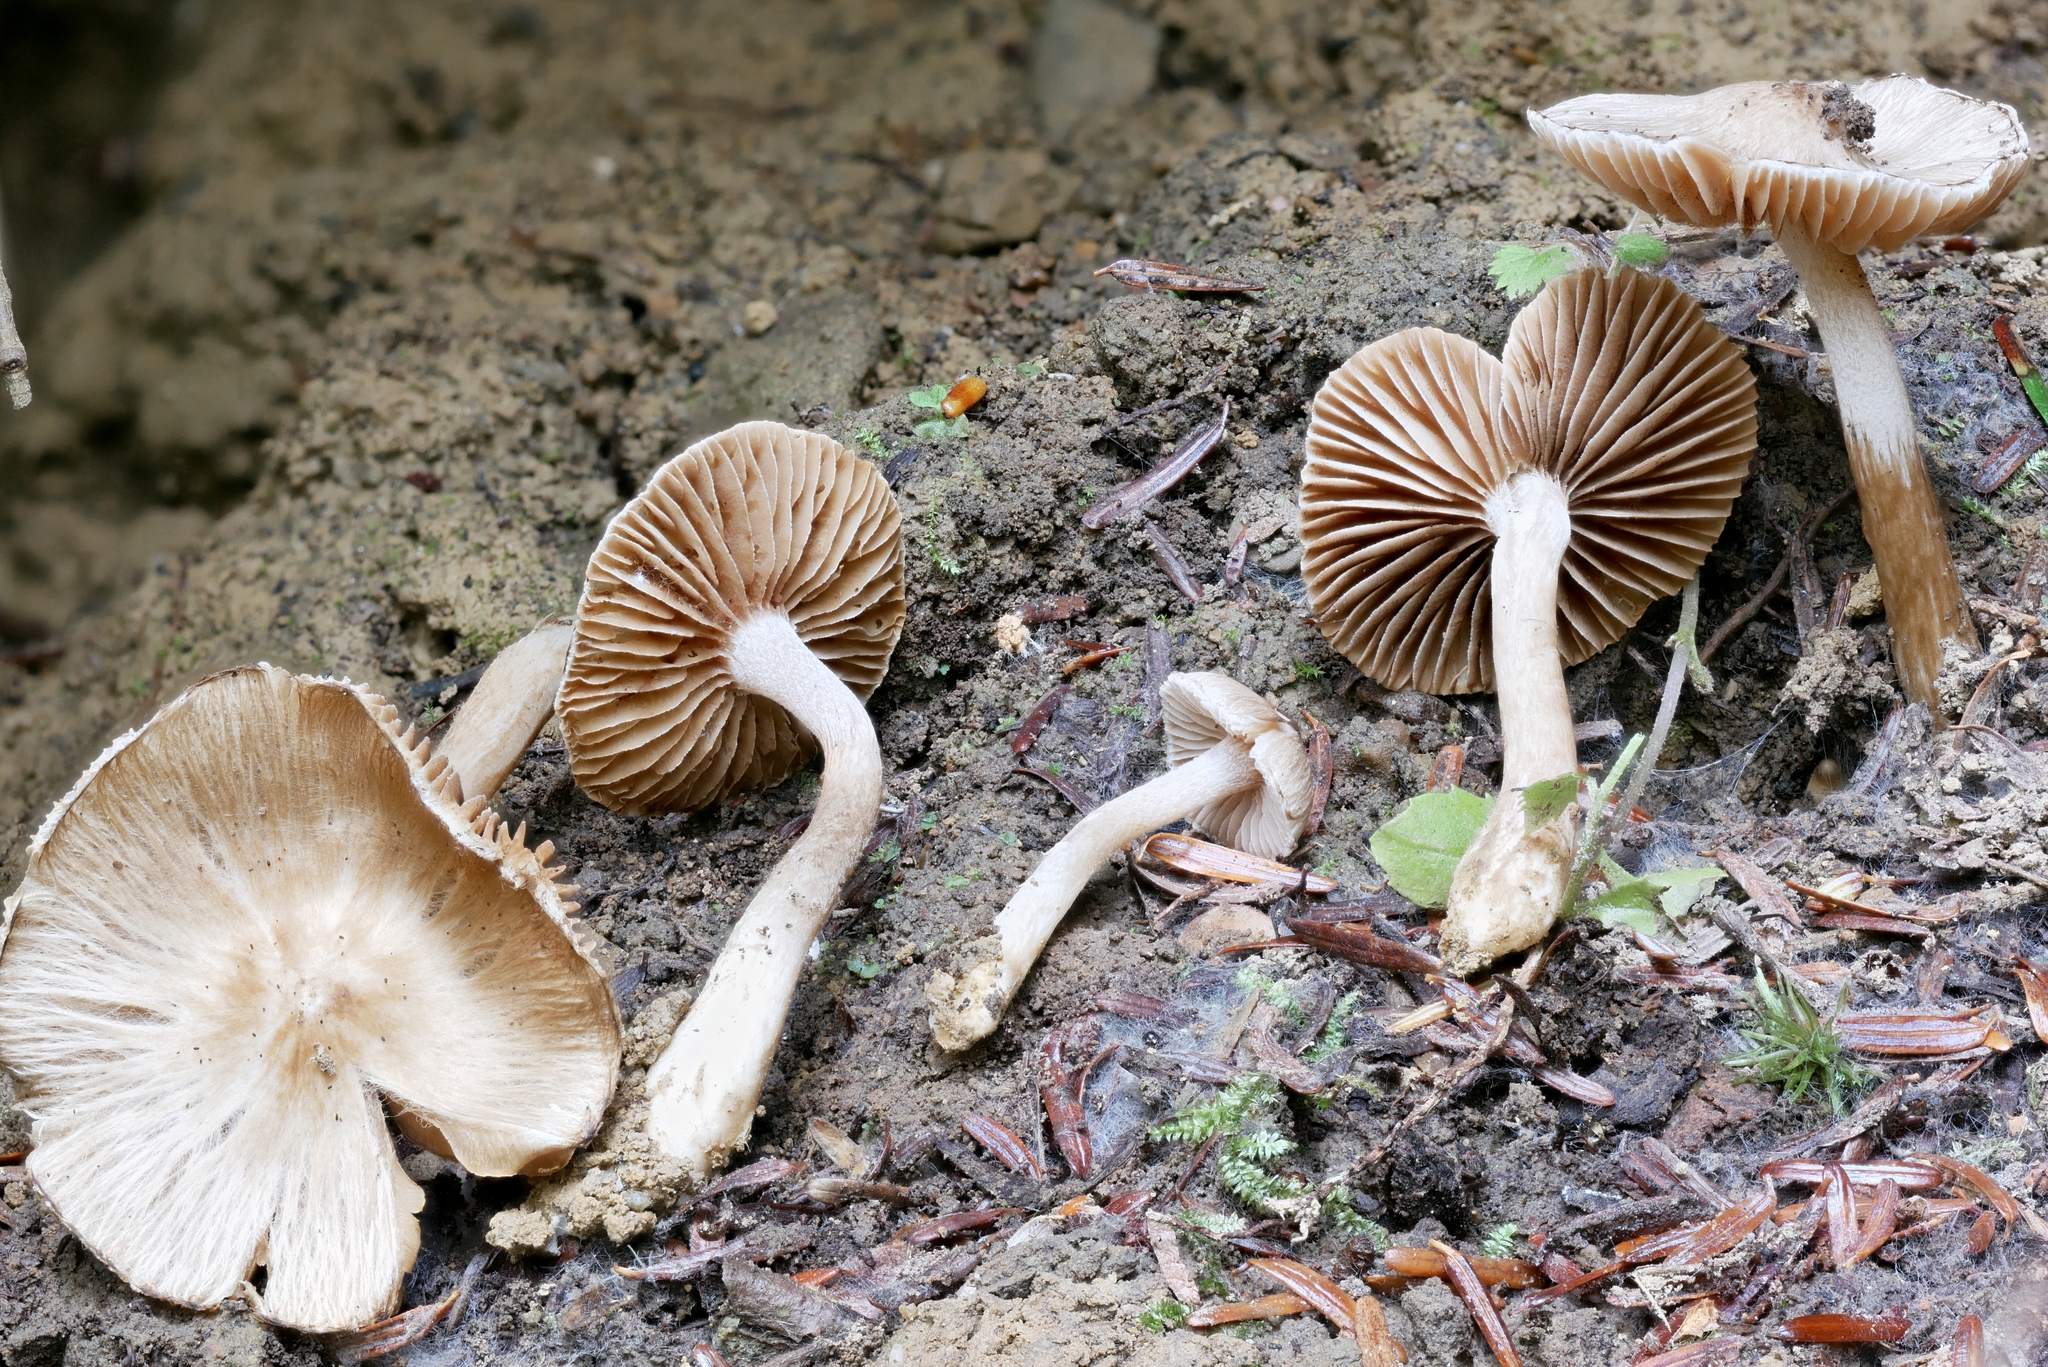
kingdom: Fungi
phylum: Basidiomycota
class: Agaricomycetes
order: Agaricales
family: Inocybaceae
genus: Inocybe
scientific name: Inocybe fuscicothurnata
